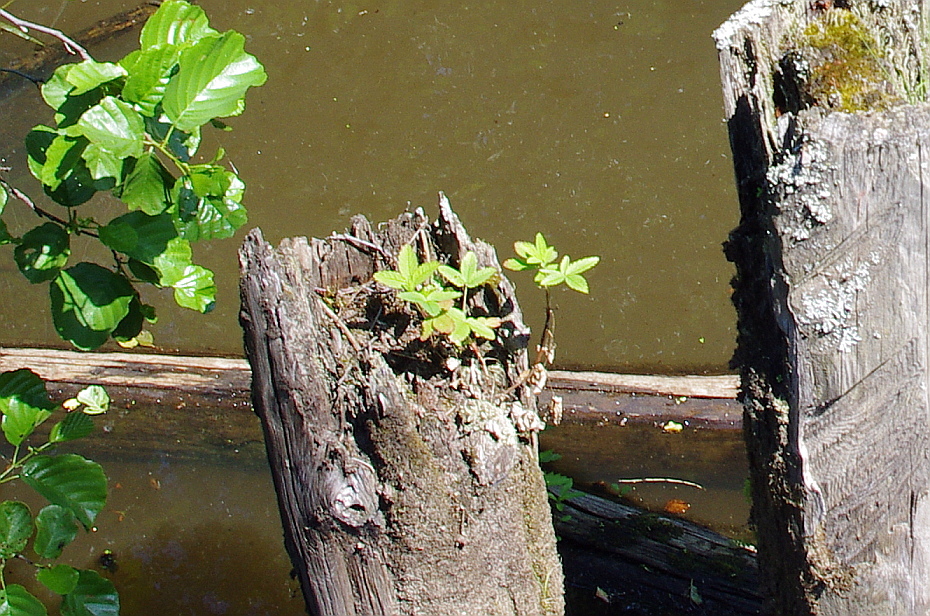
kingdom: Plantae
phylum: Tracheophyta
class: Magnoliopsida
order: Rosales
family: Rosaceae
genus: Comarum
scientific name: Comarum palustre
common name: Marsh cinquefoil
